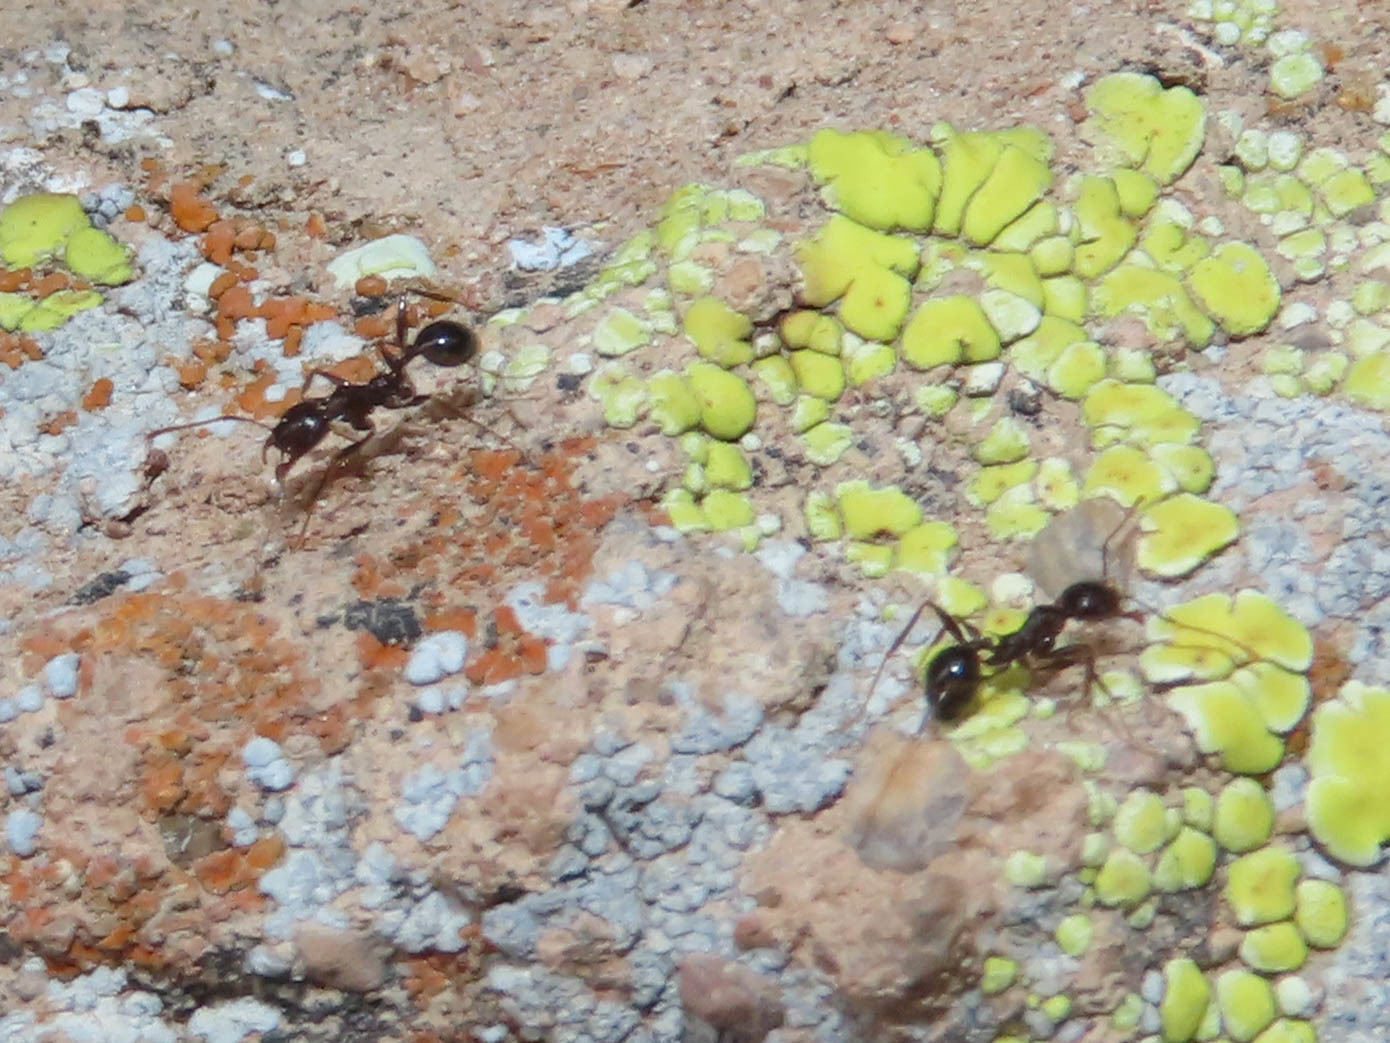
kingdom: Animalia
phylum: Arthropoda
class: Insecta
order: Hymenoptera
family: Formicidae
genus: Pheidole
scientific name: Pheidole rhea
